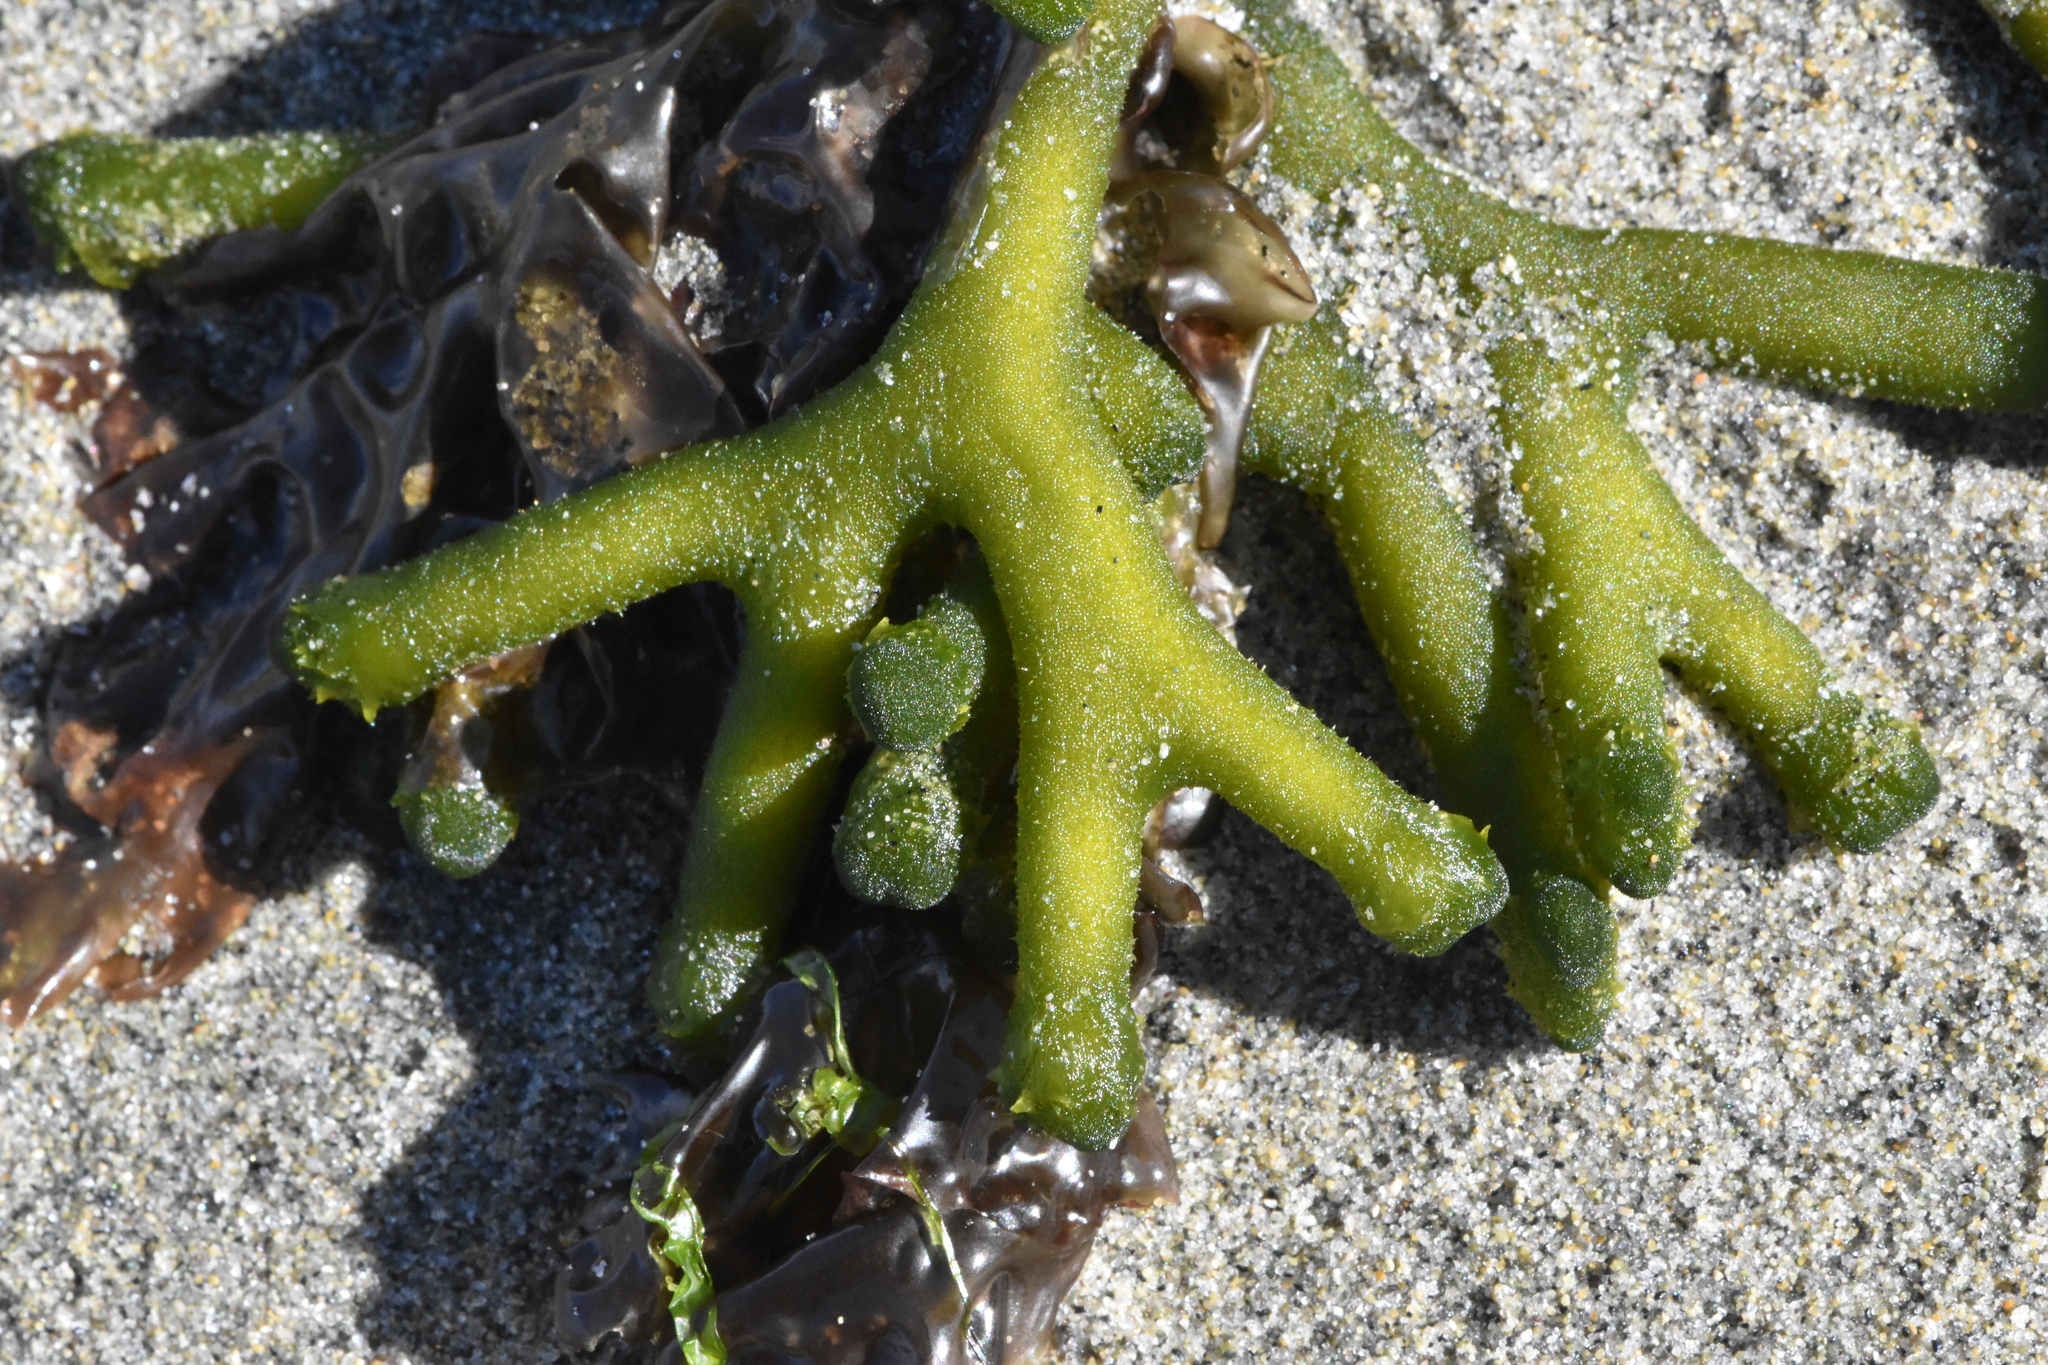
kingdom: Plantae
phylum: Chlorophyta
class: Ulvophyceae
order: Bryopsidales
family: Codiaceae
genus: Codium
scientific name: Codium fragile
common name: Dead man's fingers
